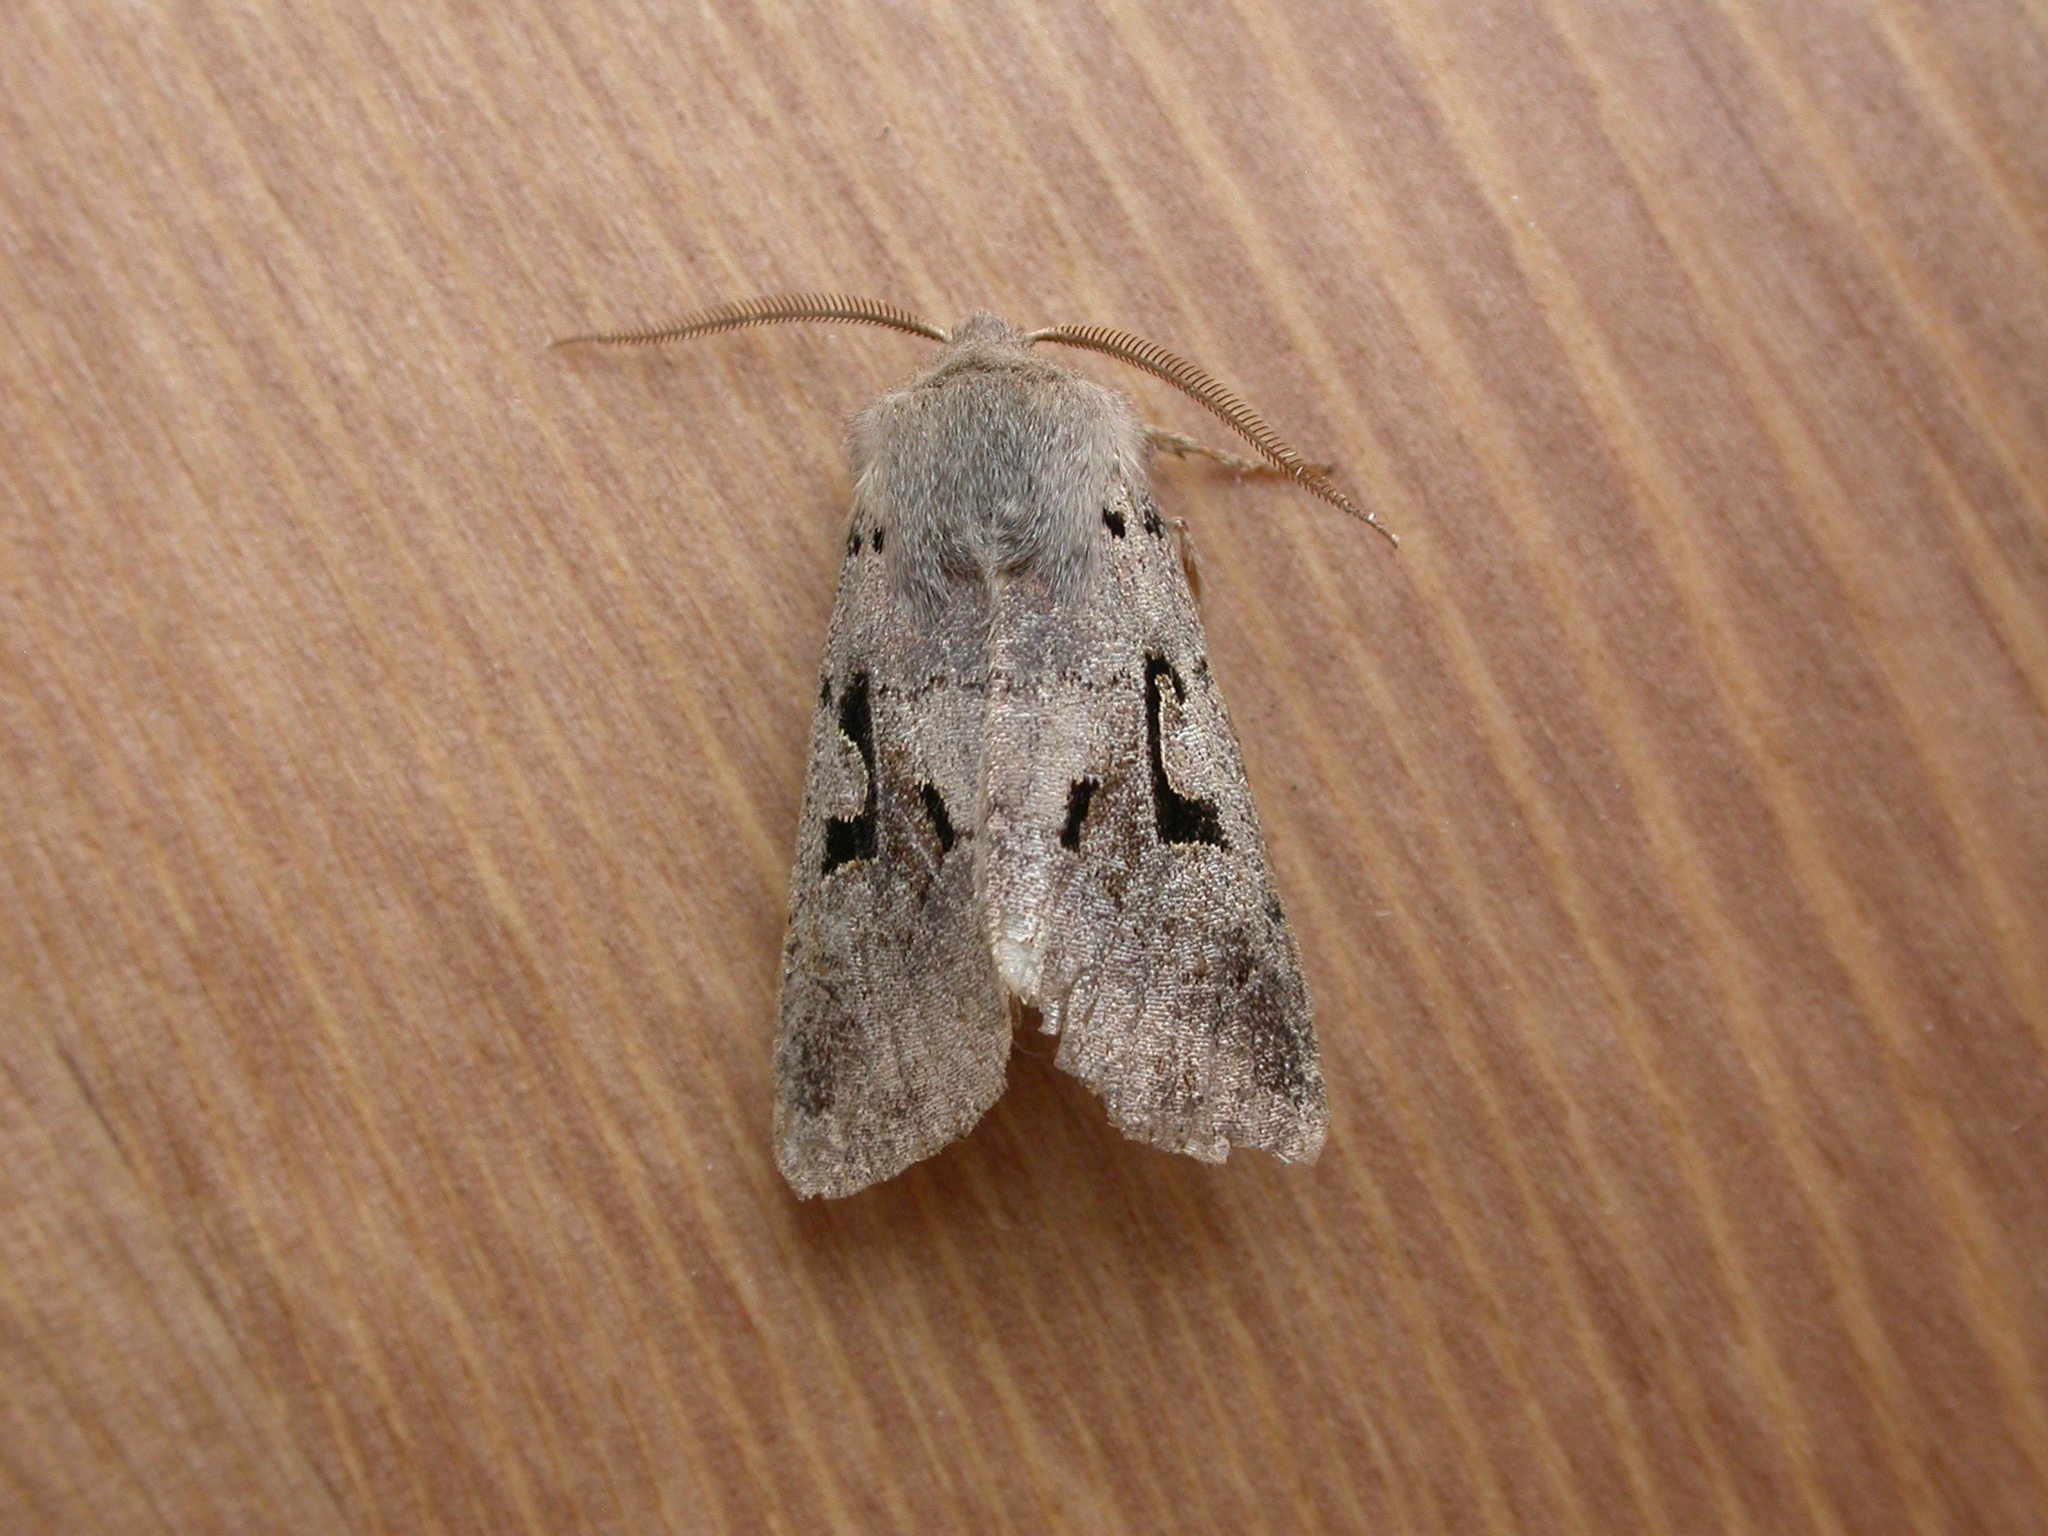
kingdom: Animalia
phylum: Arthropoda
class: Insecta
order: Lepidoptera
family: Noctuidae
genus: Orthosia
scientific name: Orthosia gothica
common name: Hebrew character
